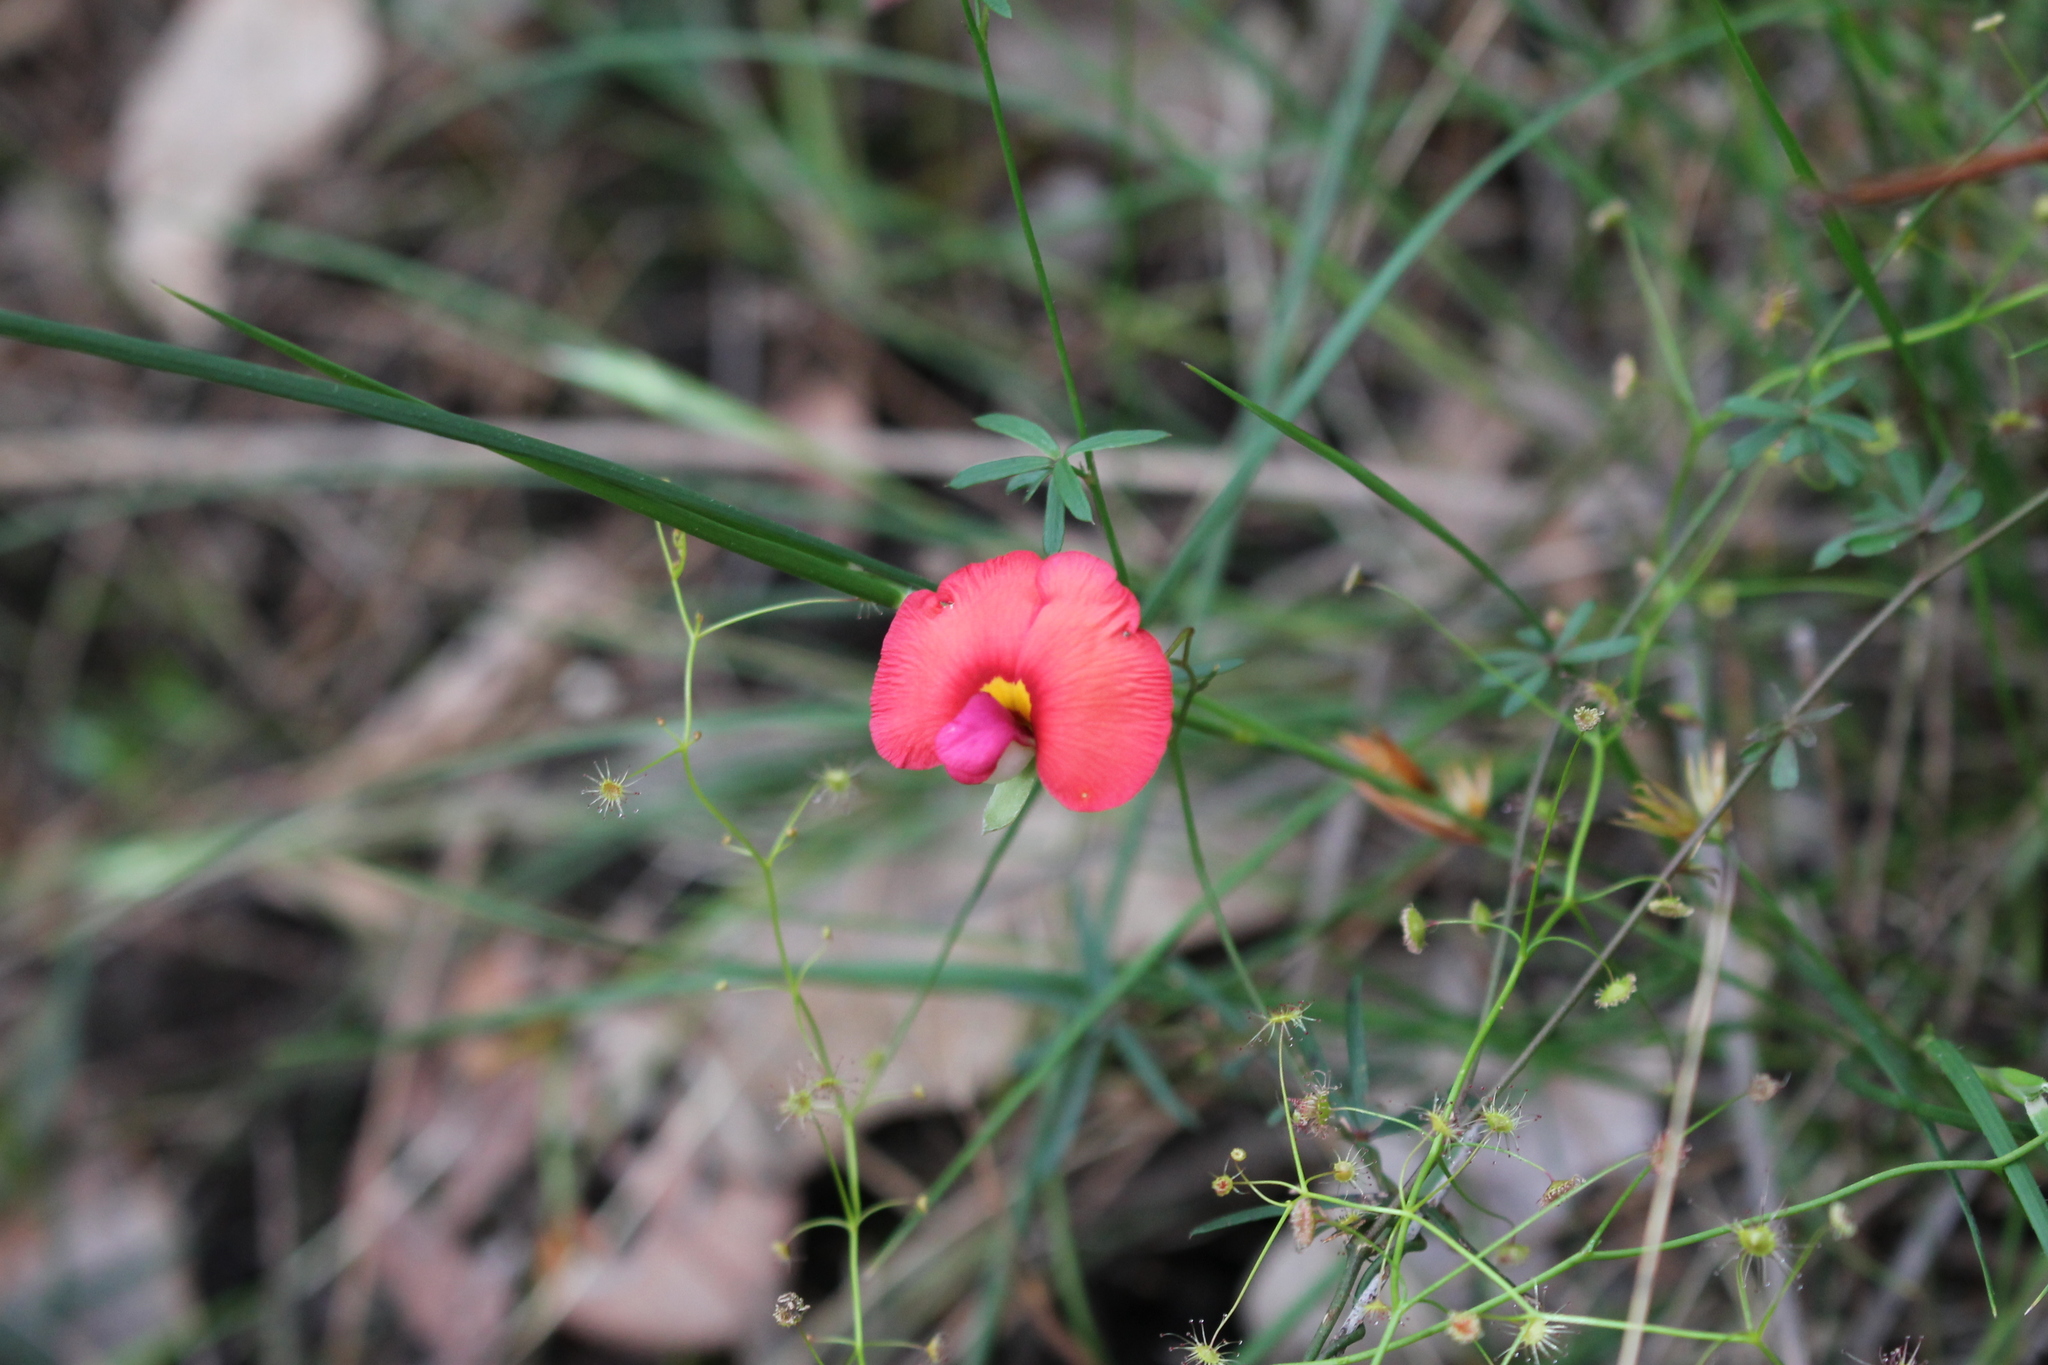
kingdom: Plantae
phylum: Tracheophyta
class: Magnoliopsida
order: Fabales
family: Fabaceae
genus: Gompholobium
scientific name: Gompholobium polymorphum
